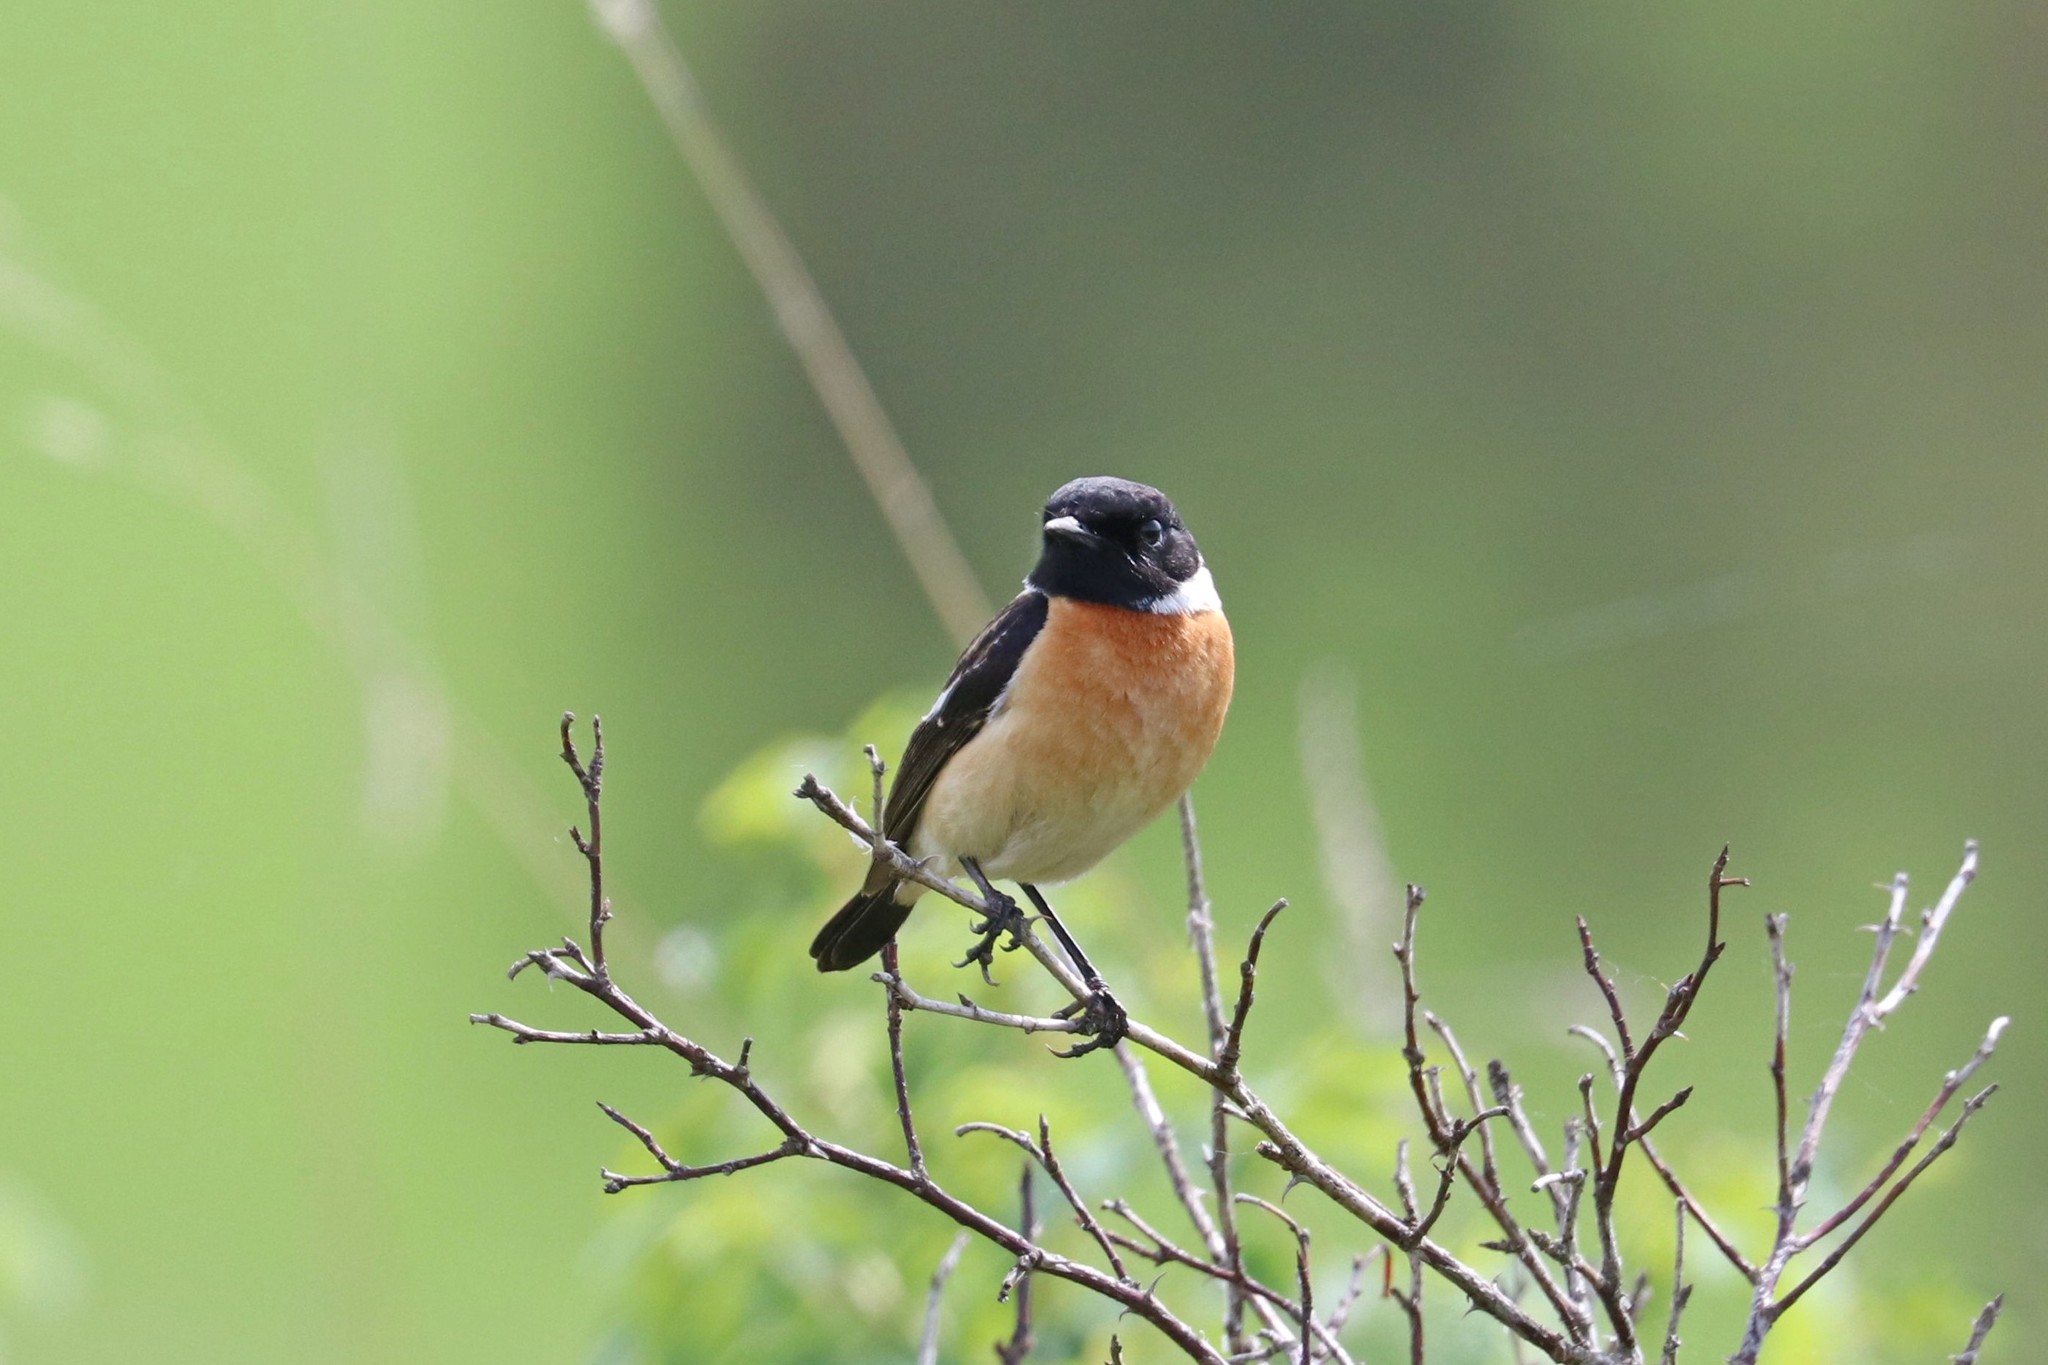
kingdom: Animalia
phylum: Chordata
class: Aves
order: Passeriformes
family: Muscicapidae
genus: Saxicola
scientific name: Saxicola maurus
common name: Siberian stonechat
